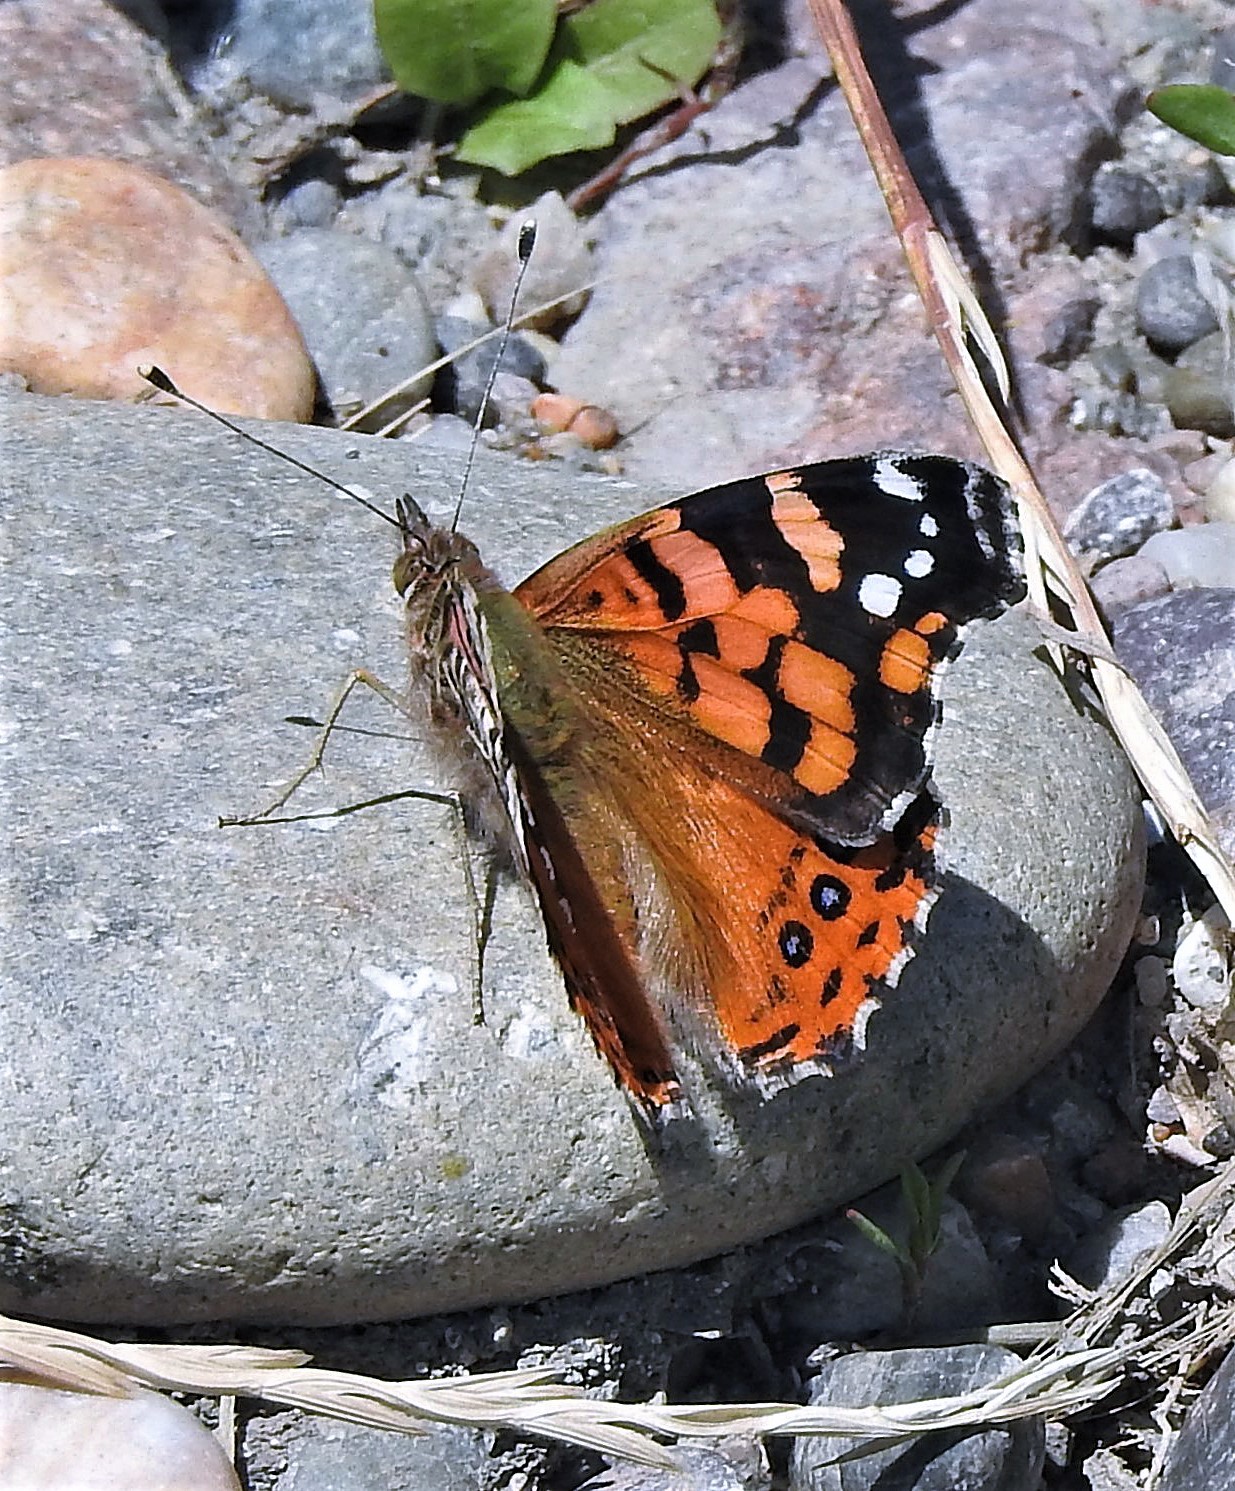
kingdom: Animalia
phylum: Arthropoda
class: Insecta
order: Lepidoptera
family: Nymphalidae
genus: Vanessa
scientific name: Vanessa carye
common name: Subtropical lady
